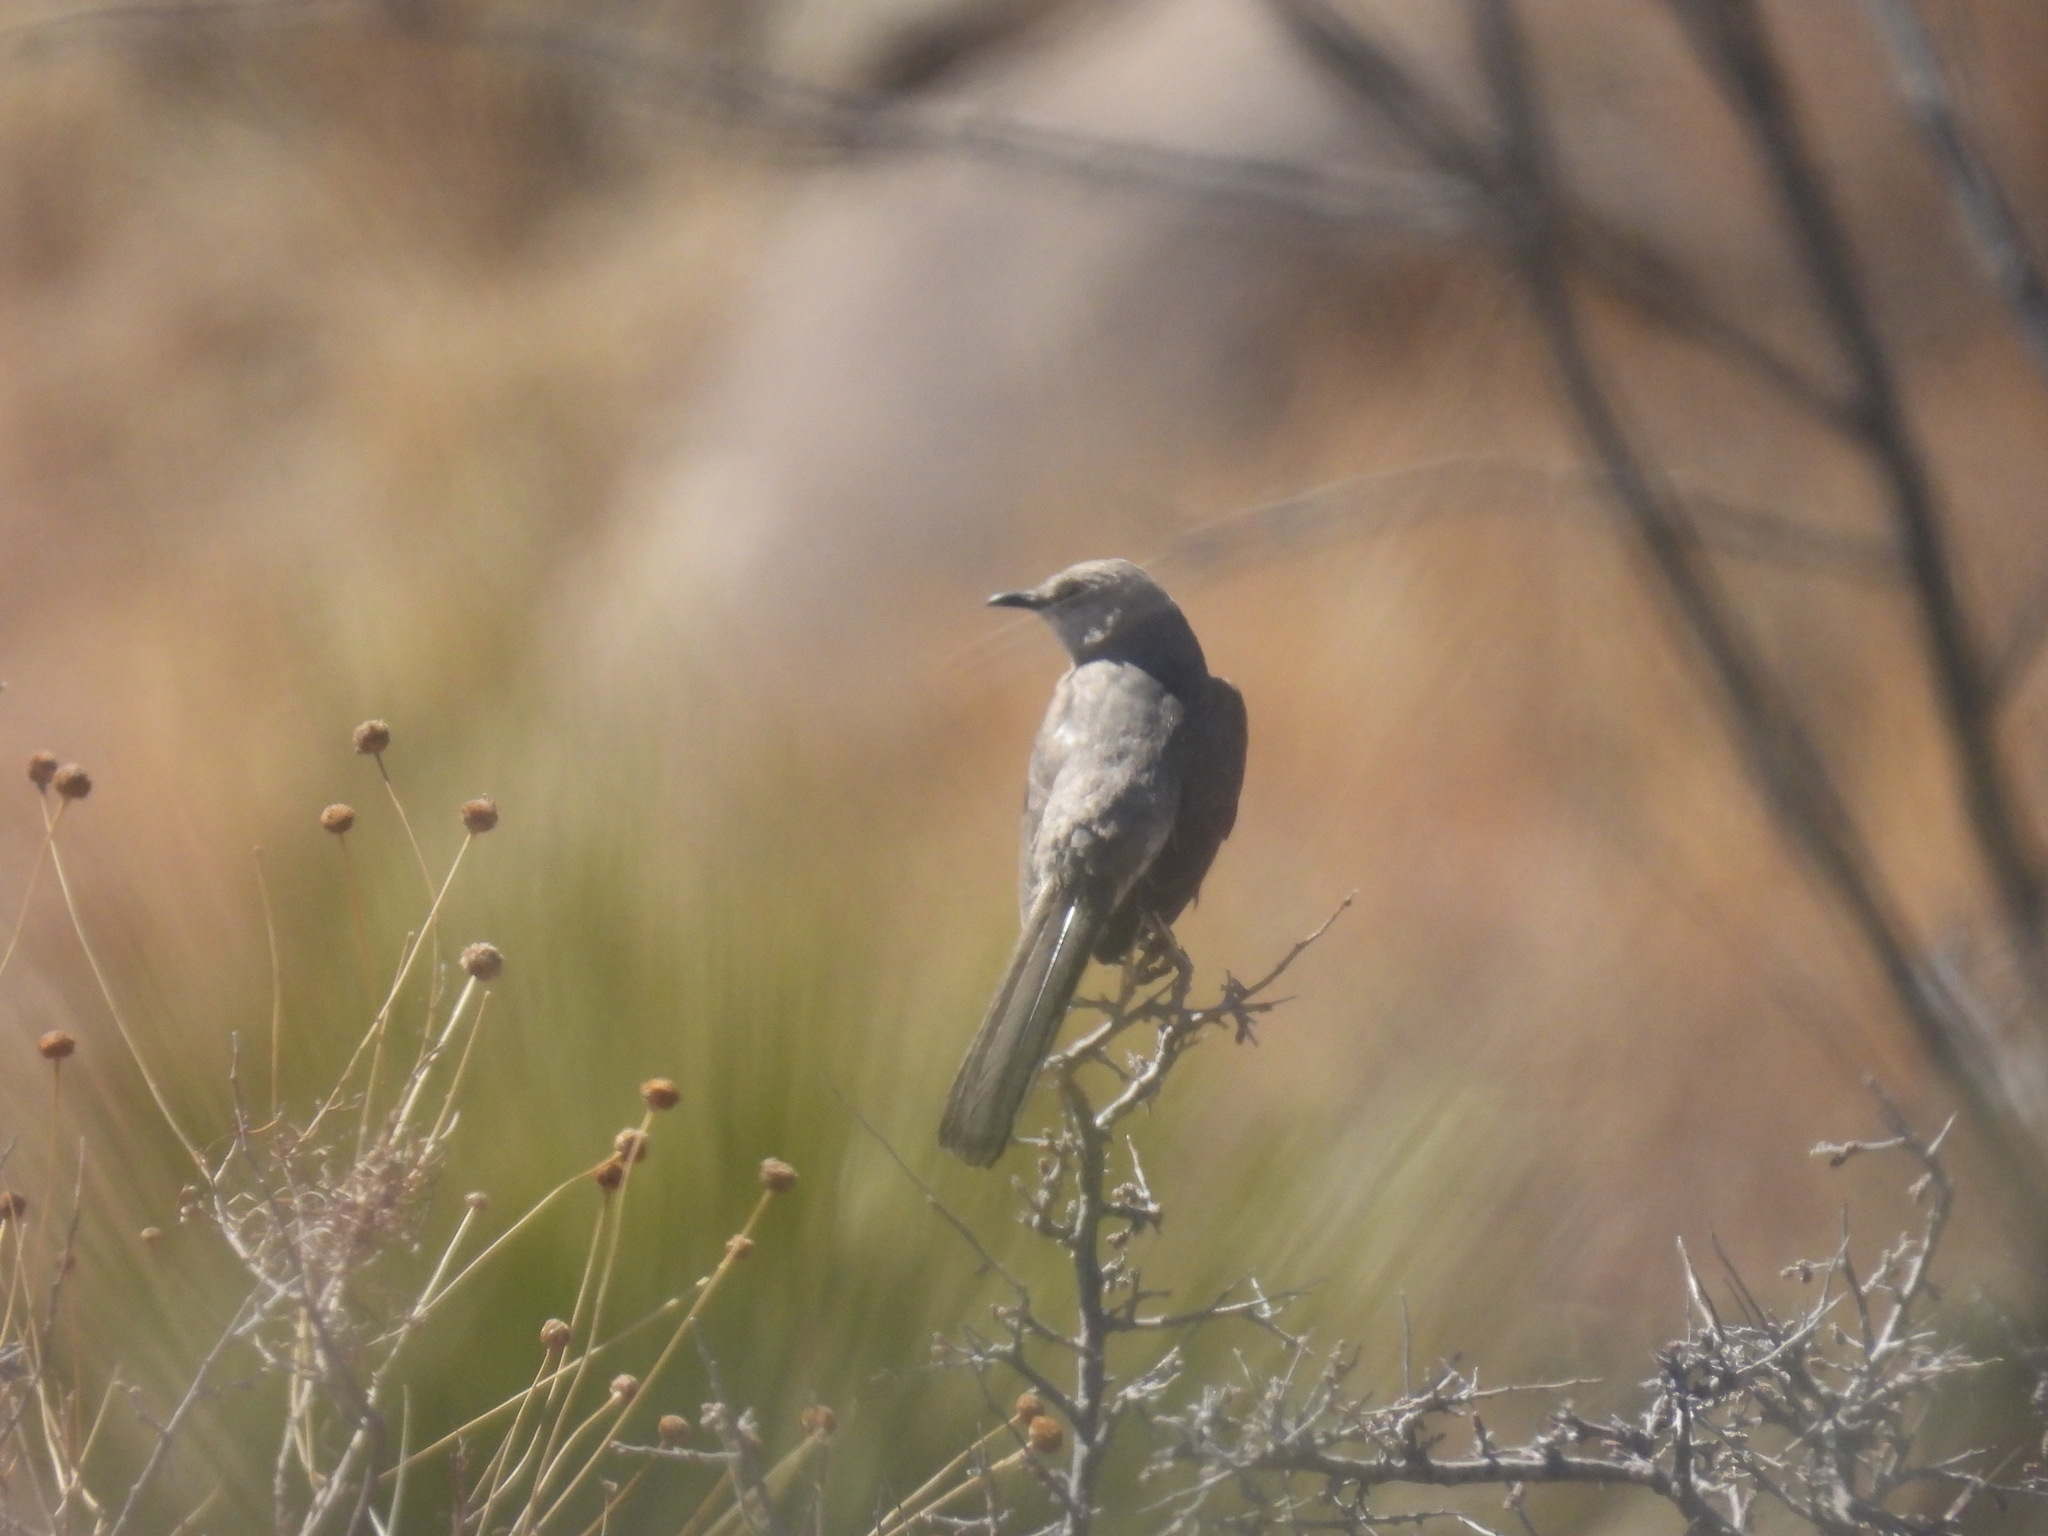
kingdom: Animalia
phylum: Chordata
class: Aves
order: Passeriformes
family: Mimidae
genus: Mimus
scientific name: Mimus polyglottos
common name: Northern mockingbird
